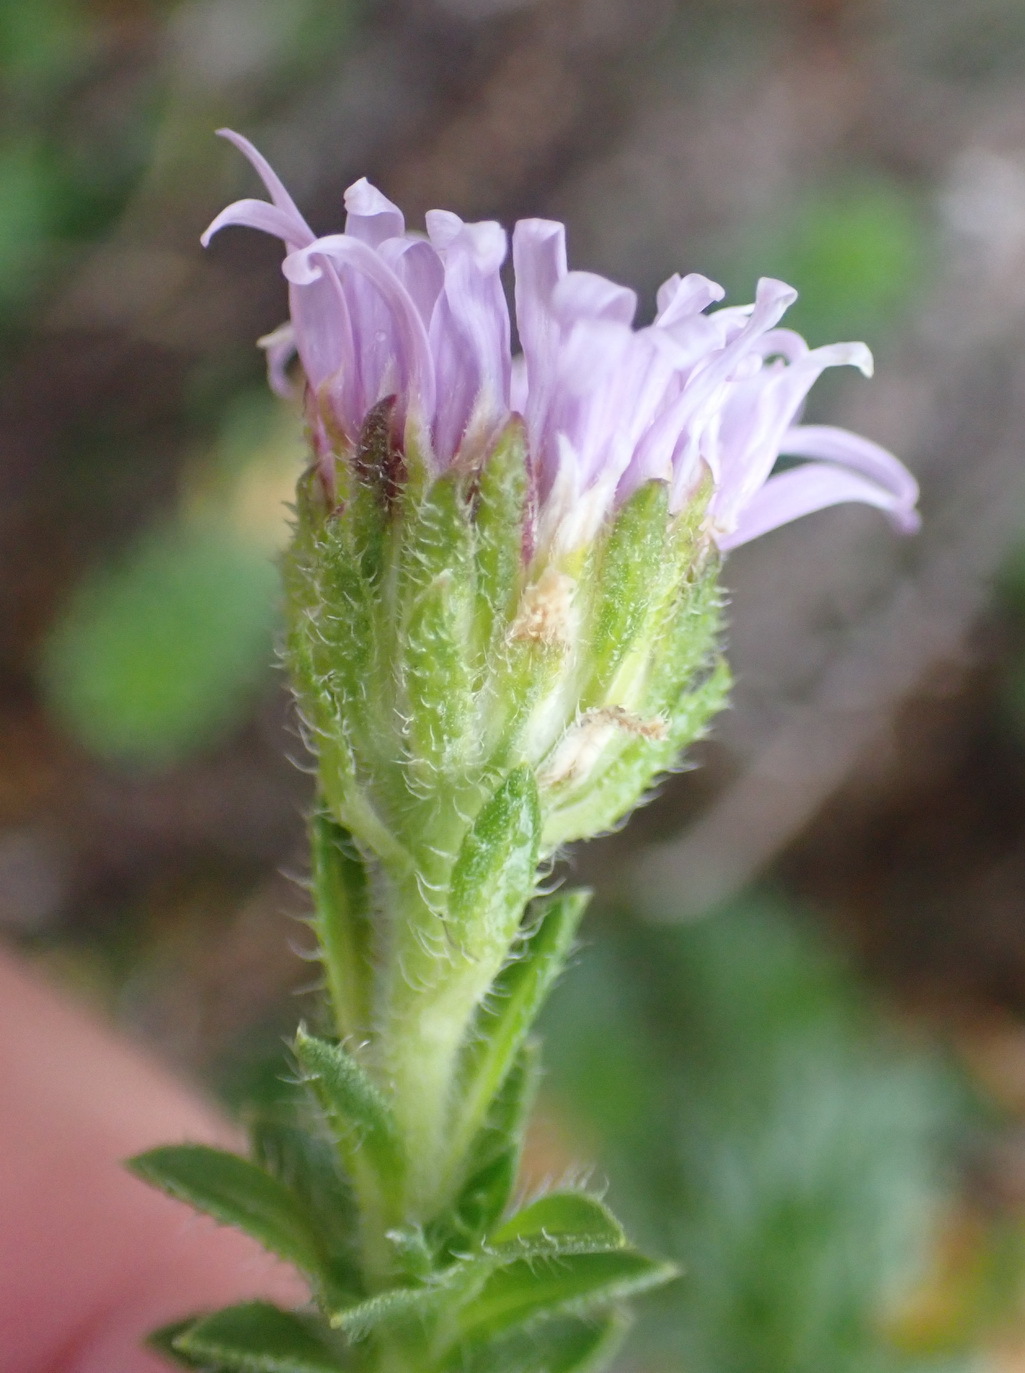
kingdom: Plantae
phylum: Tracheophyta
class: Magnoliopsida
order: Asterales
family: Asteraceae
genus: Felicia
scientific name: Felicia echinata
